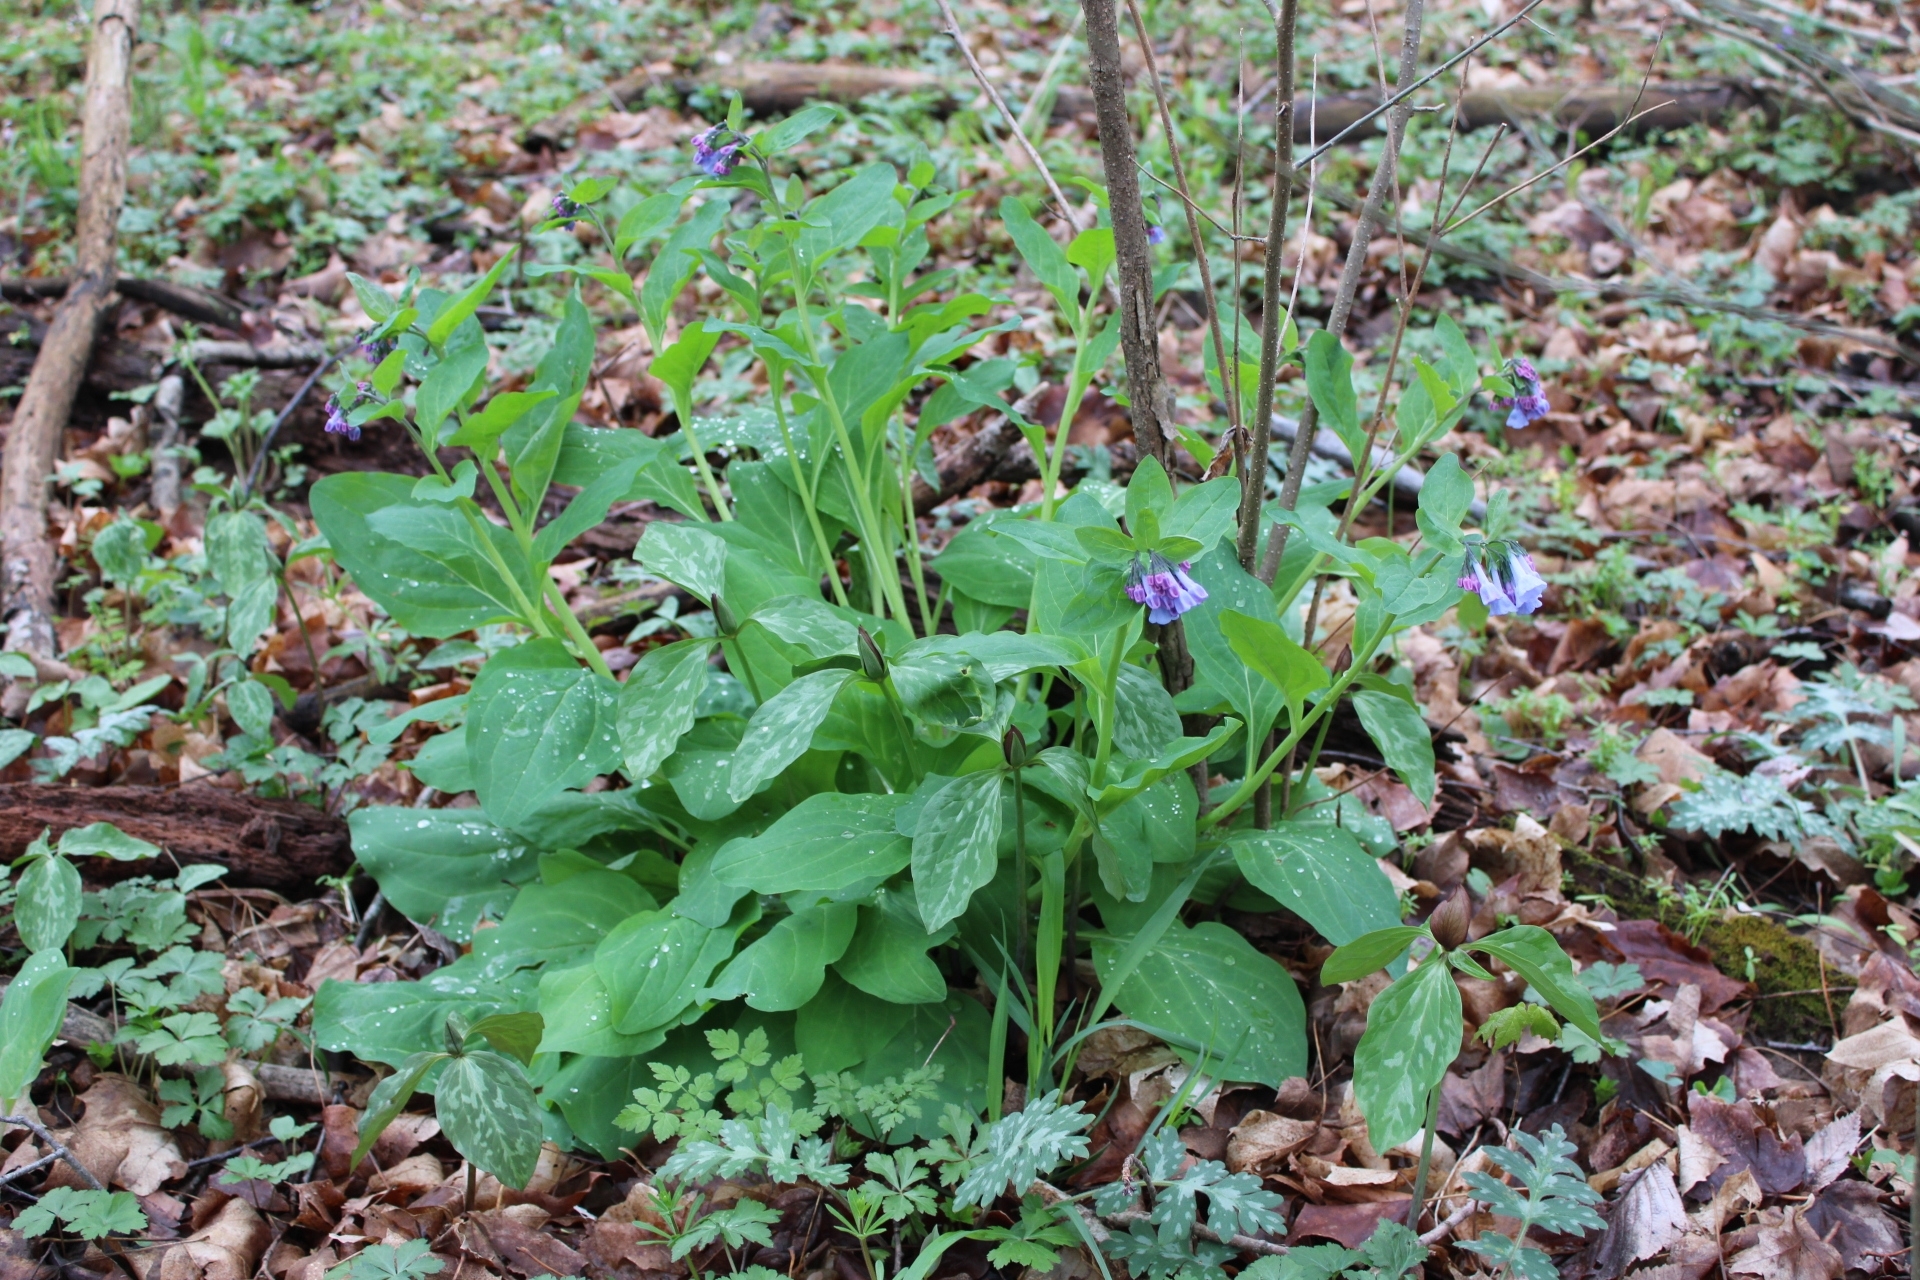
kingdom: Plantae
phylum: Tracheophyta
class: Magnoliopsida
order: Boraginales
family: Boraginaceae
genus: Mertensia
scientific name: Mertensia virginica
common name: Virginia bluebells
